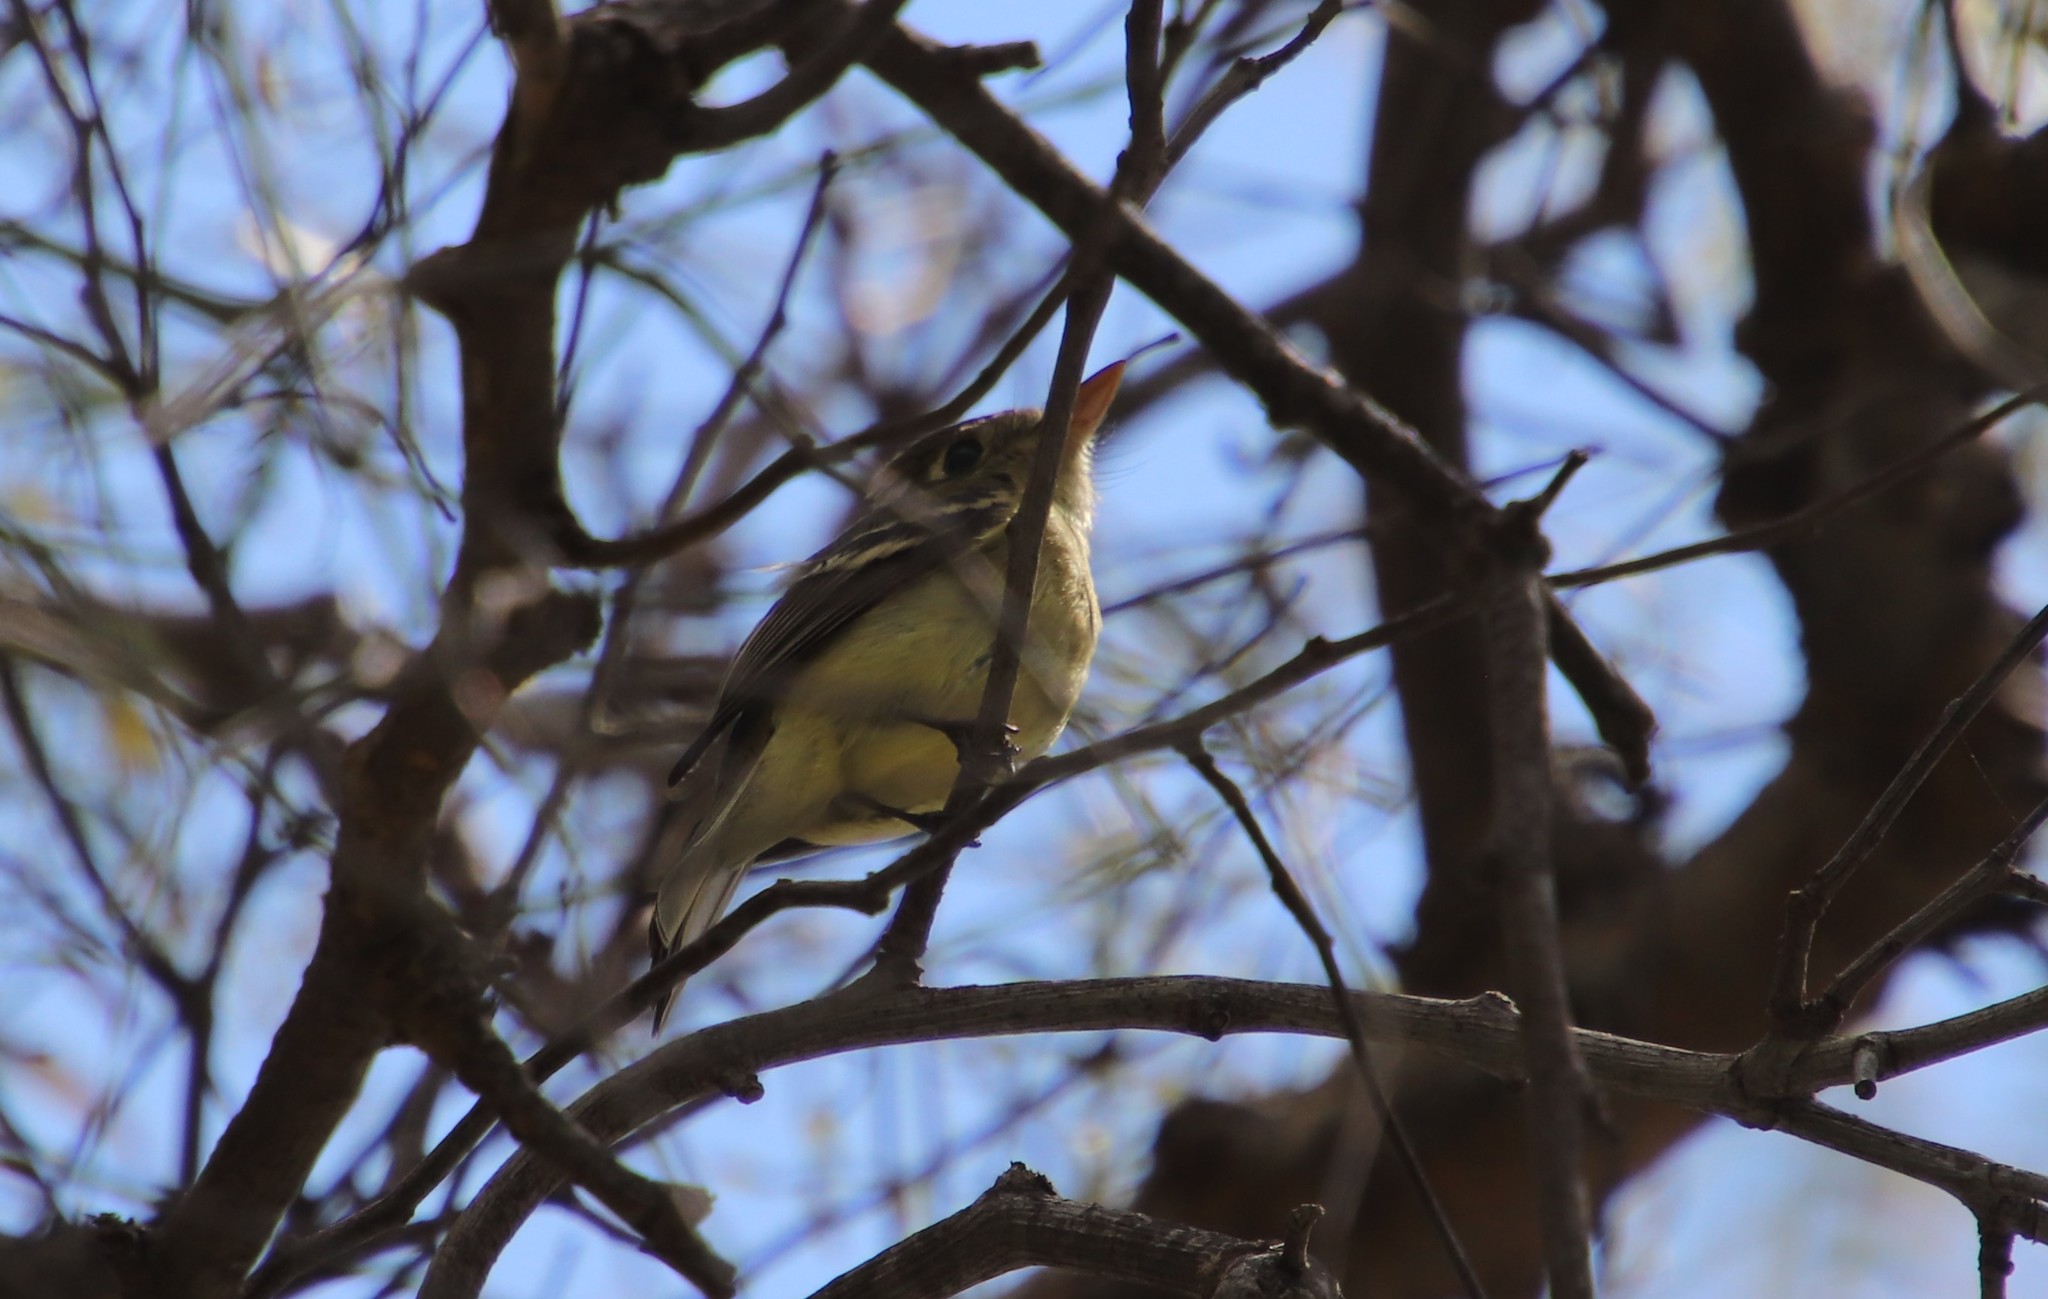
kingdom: Animalia
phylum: Chordata
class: Aves
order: Passeriformes
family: Tyrannidae
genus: Empidonax
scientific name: Empidonax difficilis
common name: Pacific-slope flycatcher
